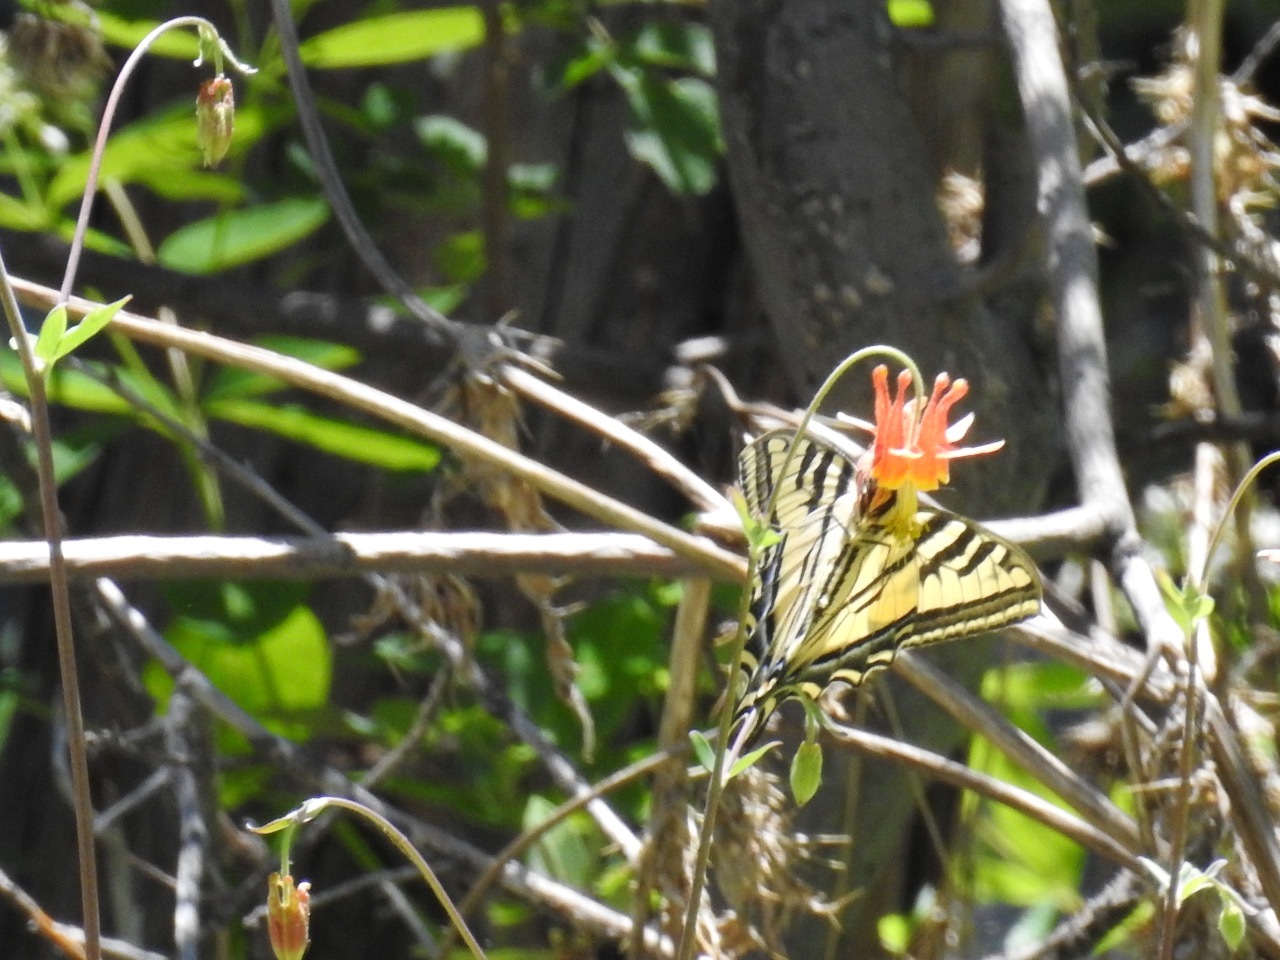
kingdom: Animalia
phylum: Arthropoda
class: Insecta
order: Lepidoptera
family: Papilionidae
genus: Papilio
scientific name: Papilio rutulus
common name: Western tiger swallowtail
